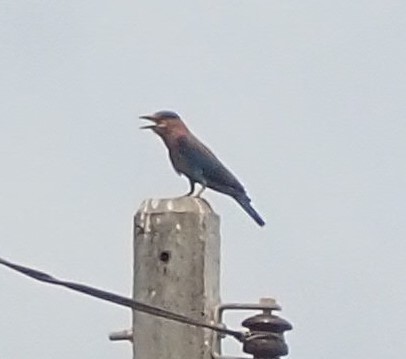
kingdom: Animalia
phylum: Chordata
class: Aves
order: Coraciiformes
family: Coraciidae
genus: Coracias
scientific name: Coracias benghalensis
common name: Indian roller
